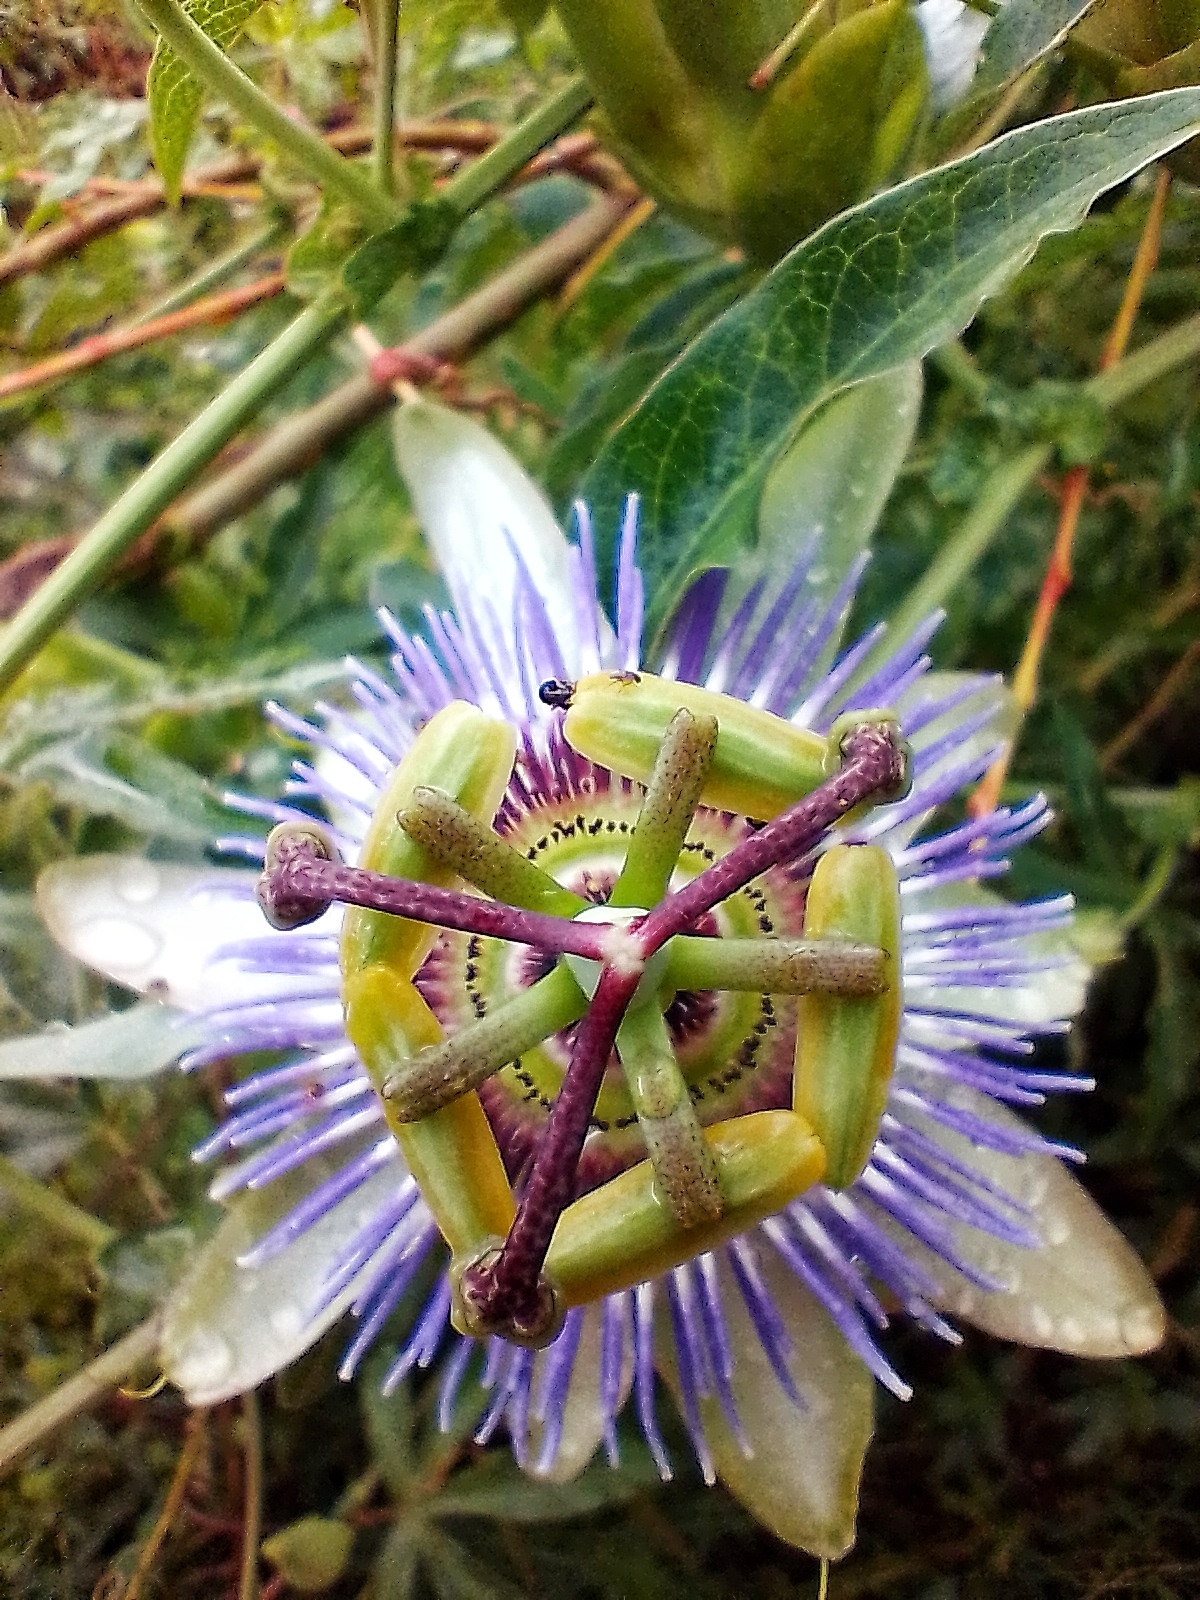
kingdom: Plantae
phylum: Tracheophyta
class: Magnoliopsida
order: Malpighiales
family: Passifloraceae
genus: Passiflora
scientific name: Passiflora caerulea
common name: Blue passionflower
